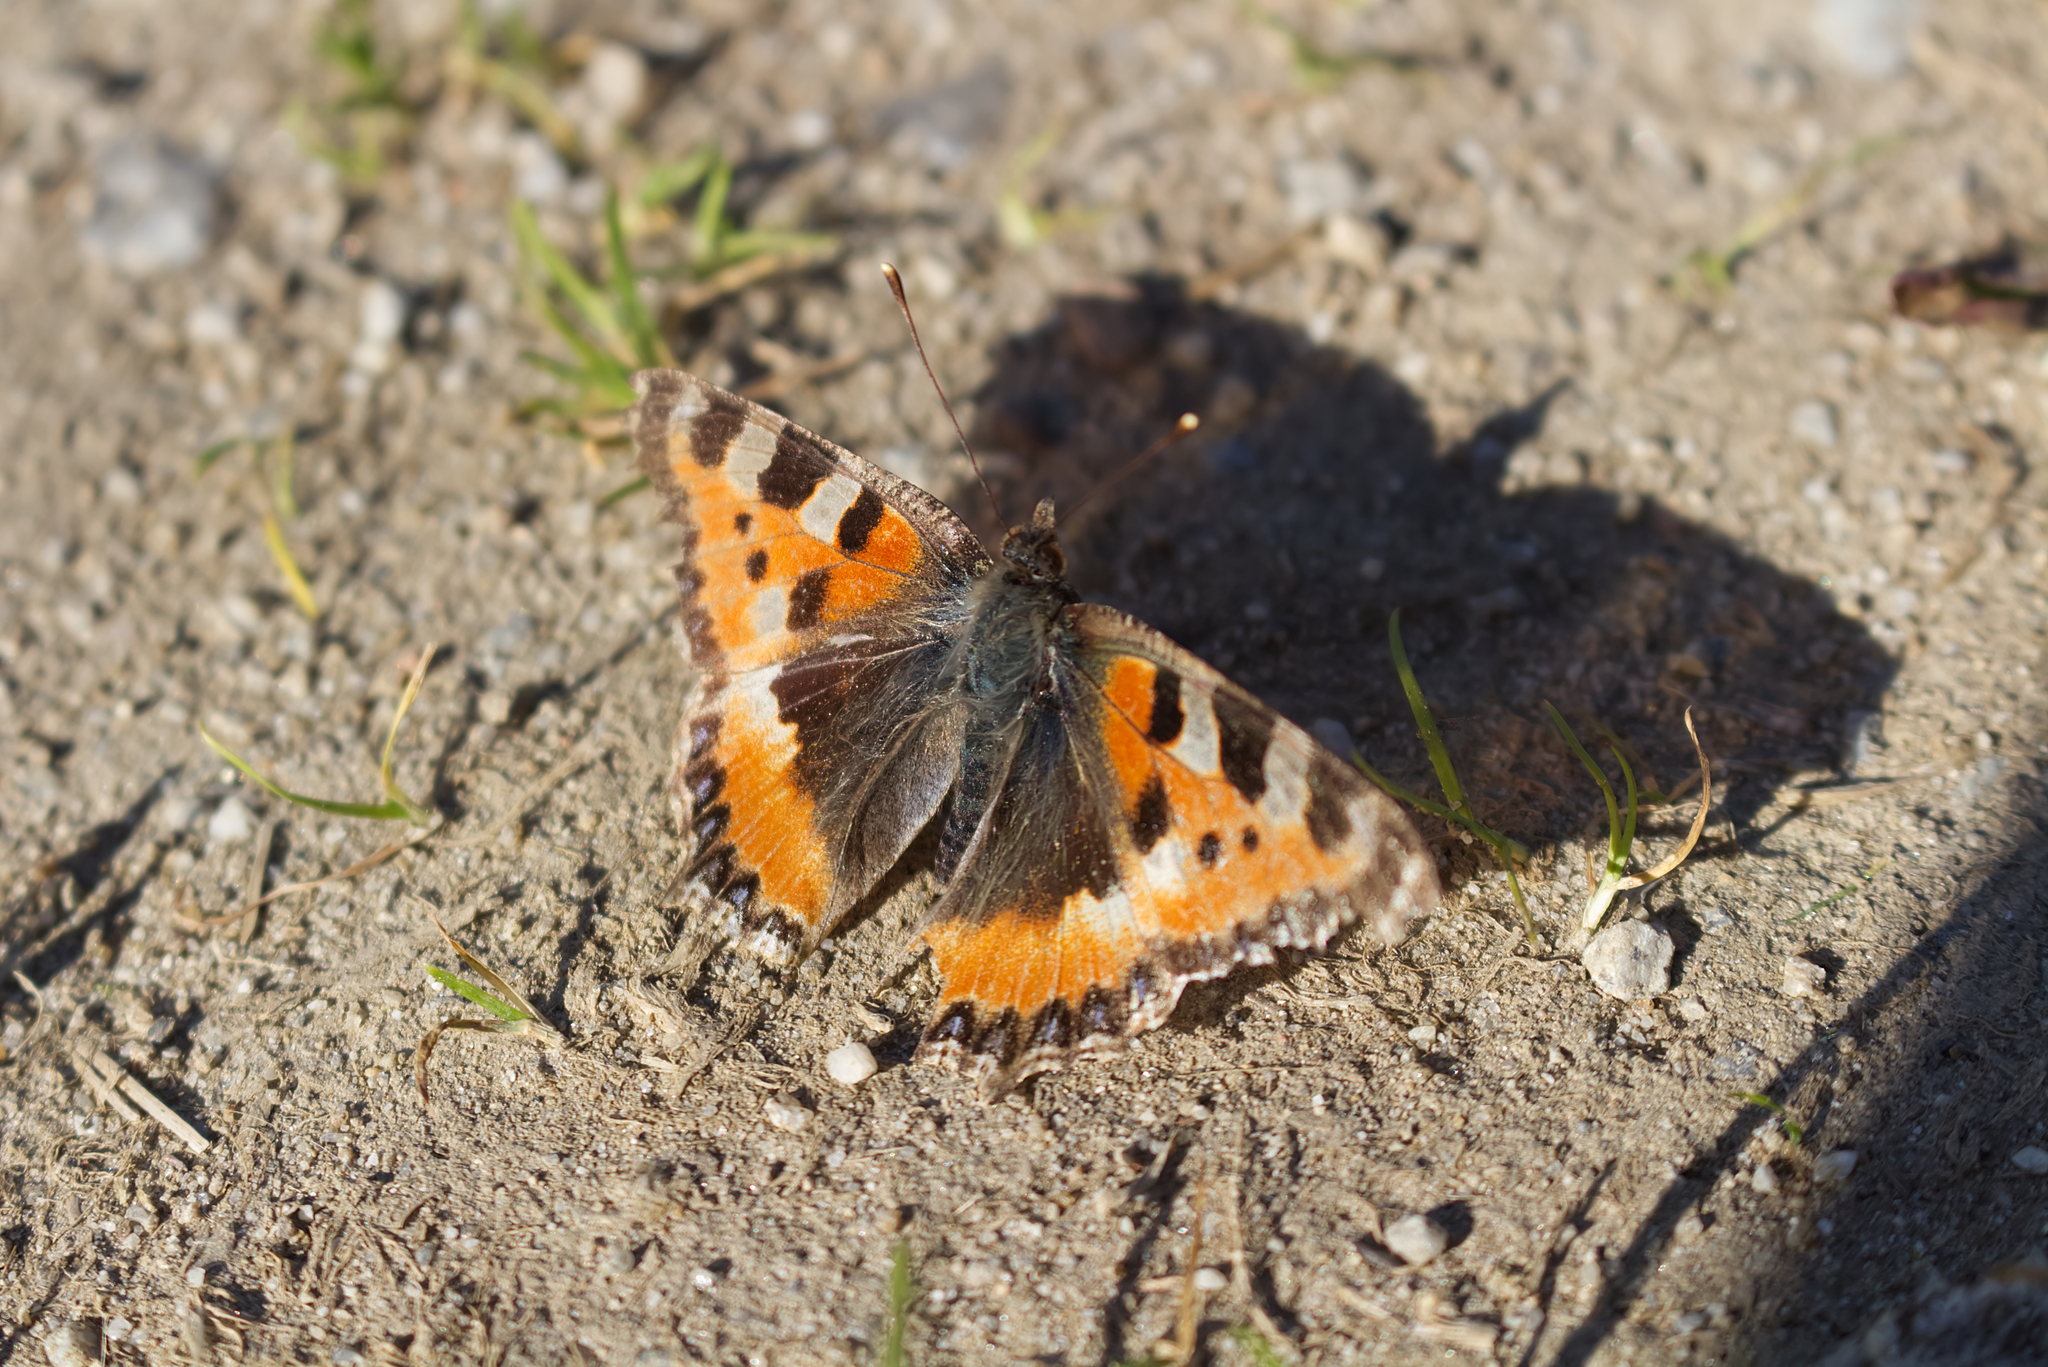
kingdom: Animalia
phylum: Arthropoda
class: Insecta
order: Lepidoptera
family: Nymphalidae
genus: Aglais
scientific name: Aglais urticae
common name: Small tortoiseshell
